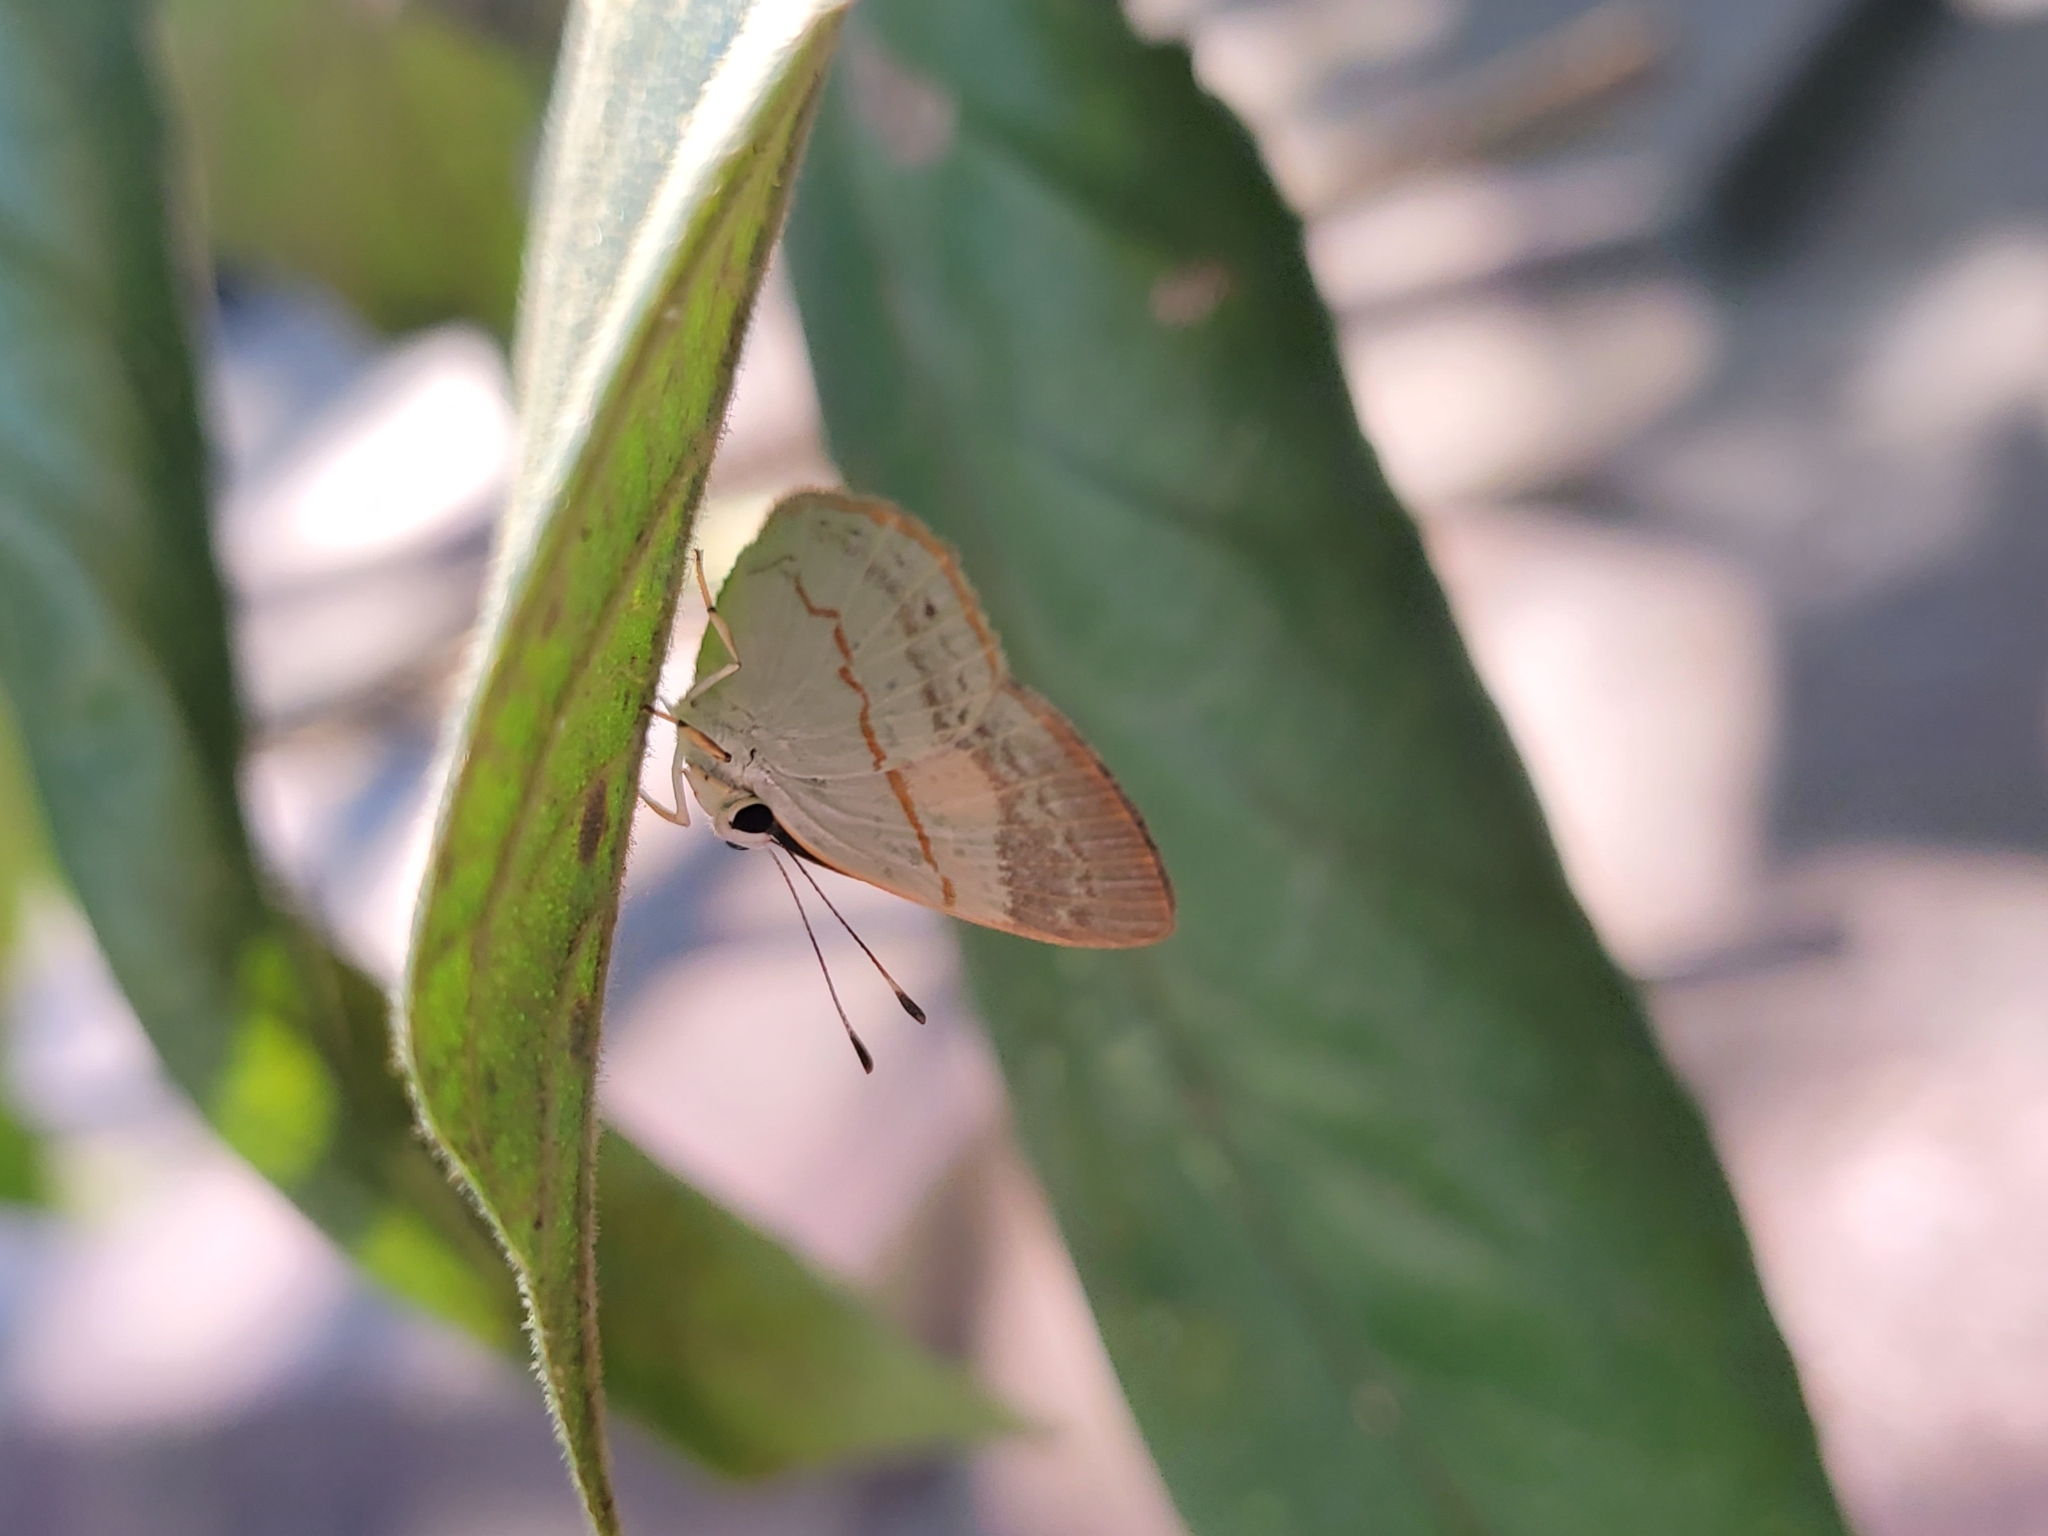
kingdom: Animalia
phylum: Arthropoda
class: Insecta
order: Lepidoptera
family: Lycaenidae
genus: Euselasia
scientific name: Euselasia pusilla
